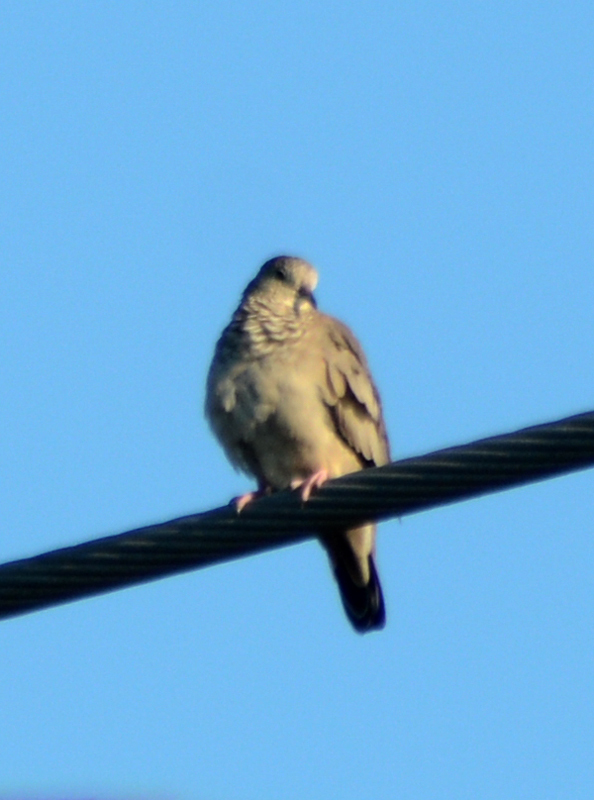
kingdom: Animalia
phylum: Chordata
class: Aves
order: Columbiformes
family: Columbidae
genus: Columbina
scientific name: Columbina passerina
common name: Common ground-dove
